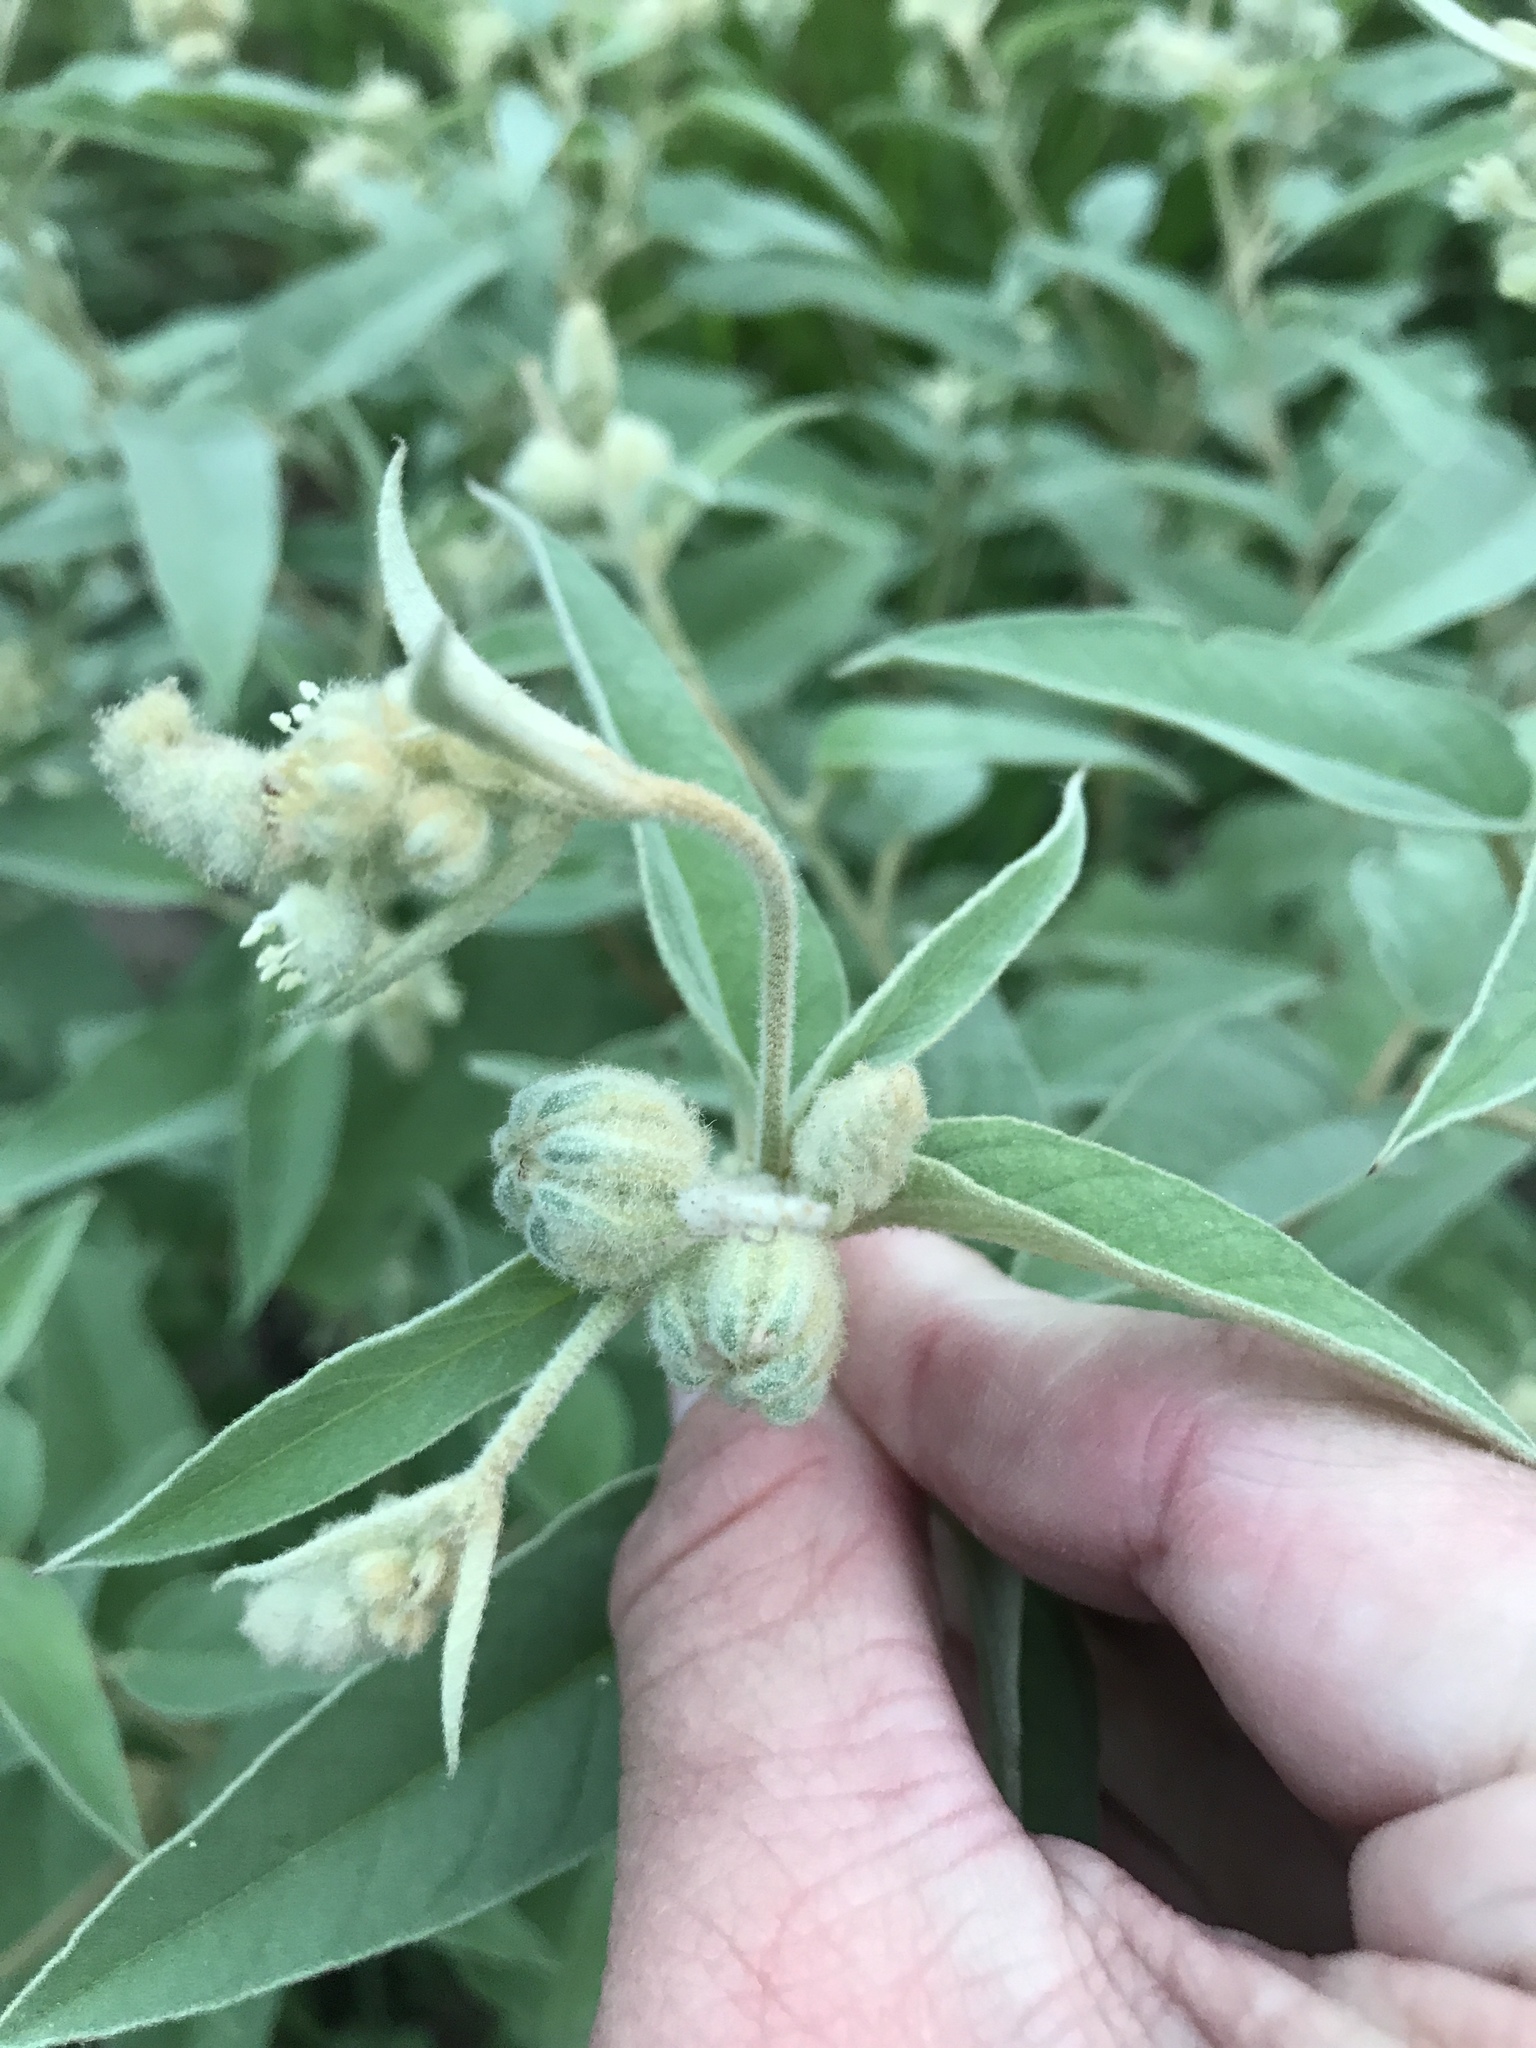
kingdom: Plantae
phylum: Tracheophyta
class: Magnoliopsida
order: Malpighiales
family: Euphorbiaceae
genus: Croton
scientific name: Croton lindheimeri
